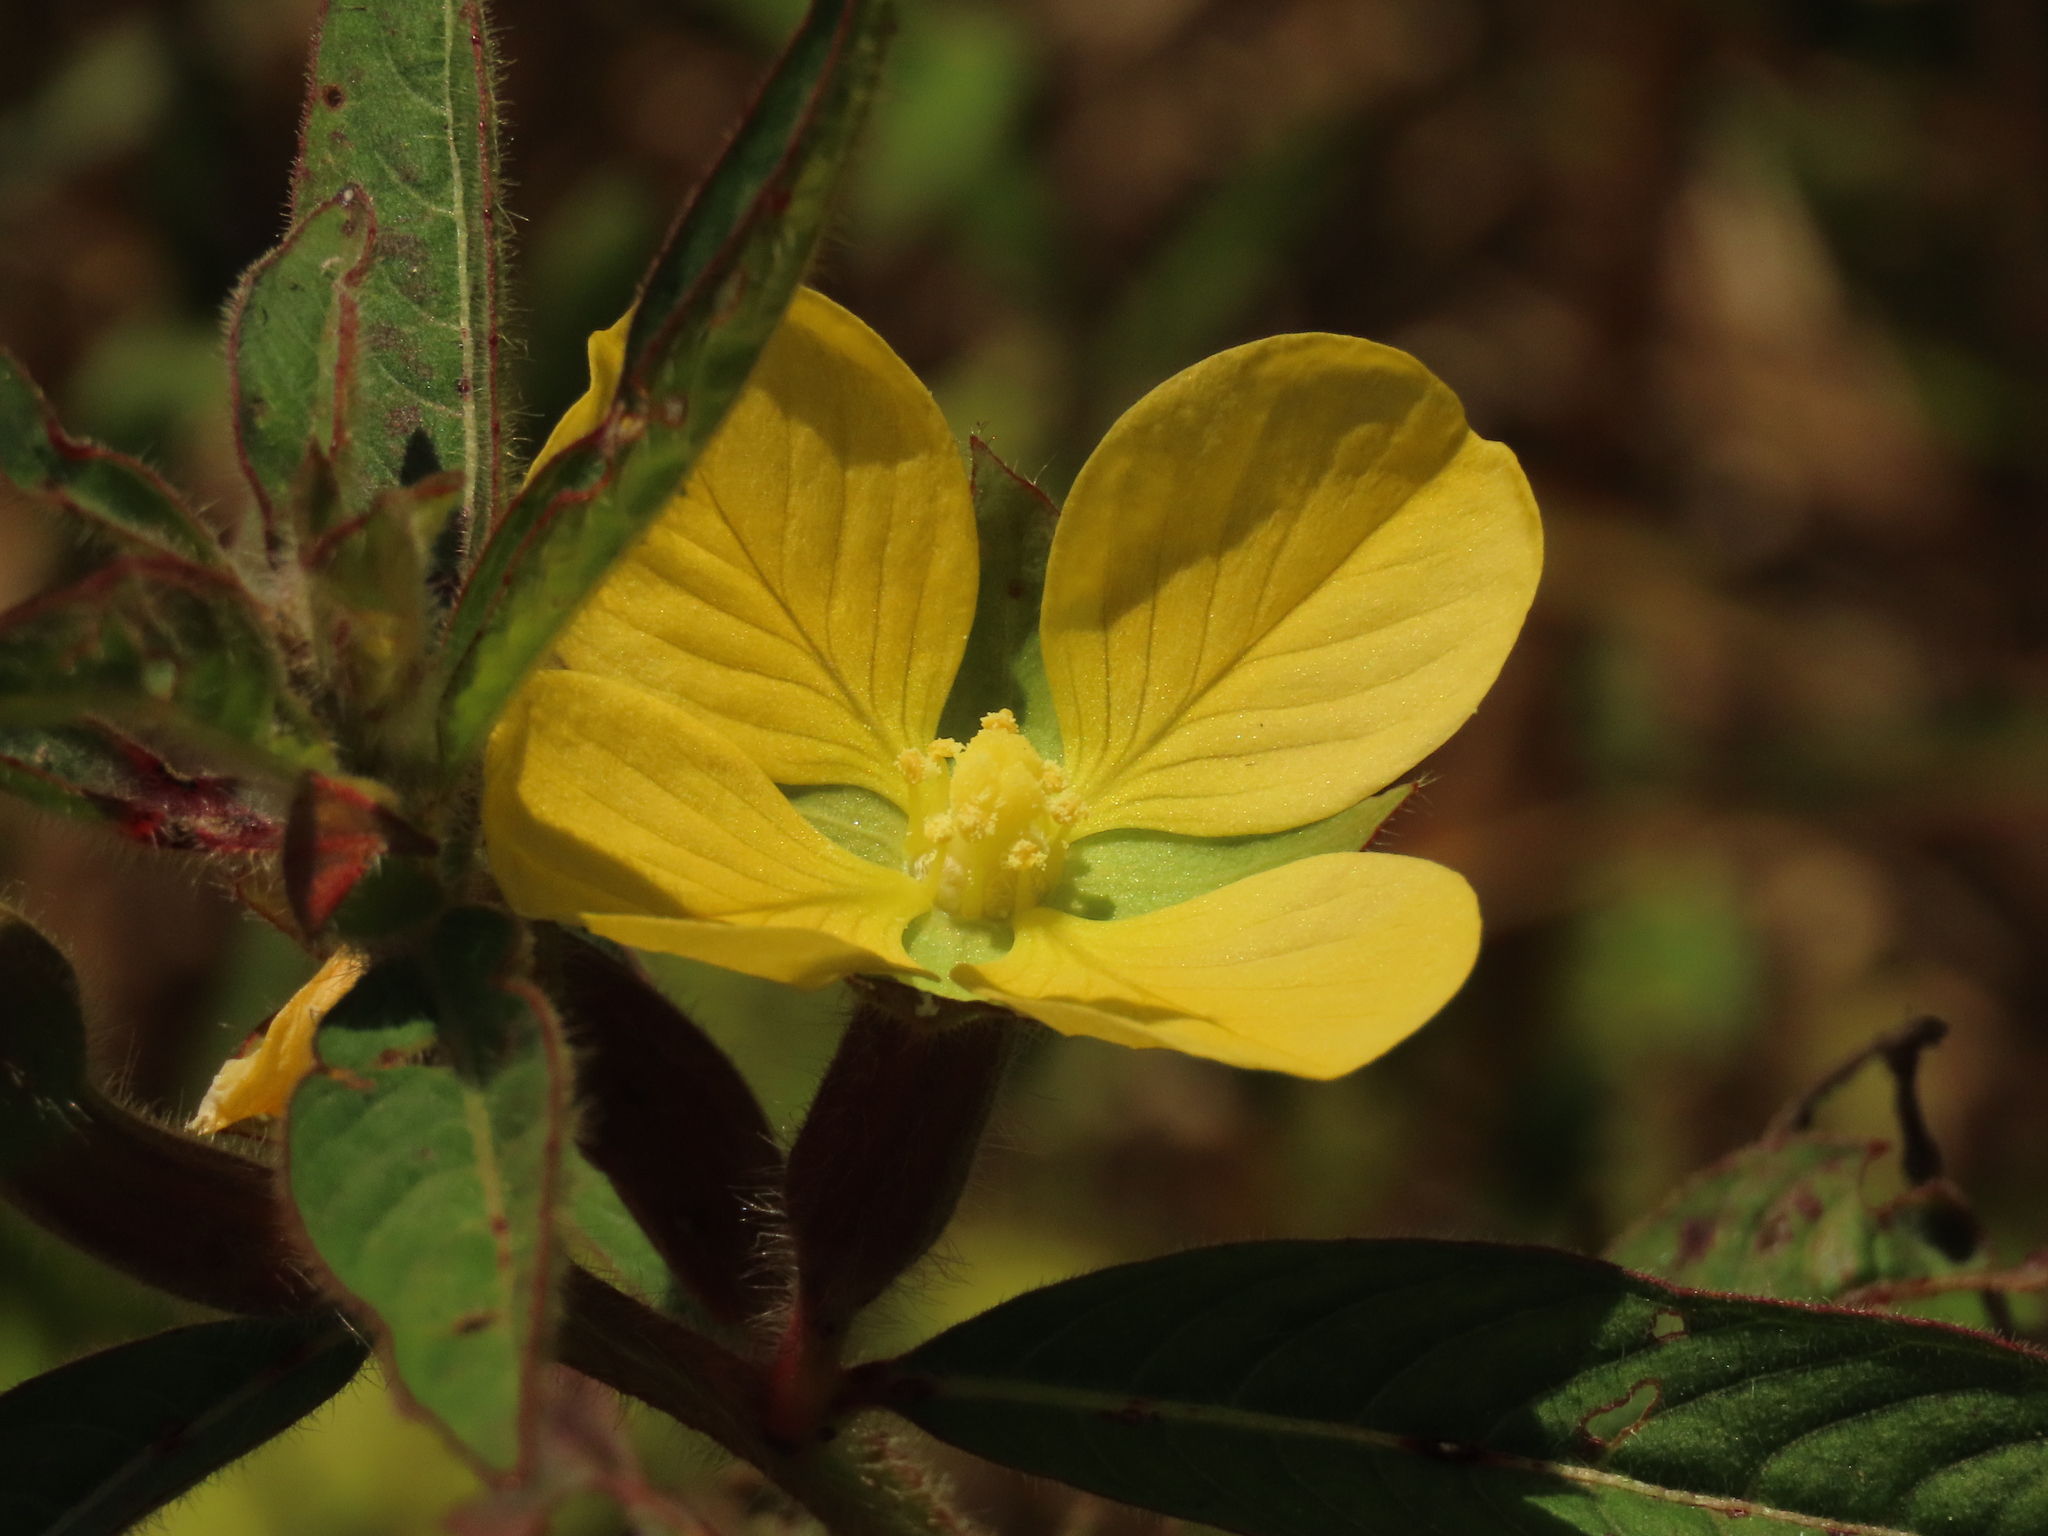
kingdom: Plantae
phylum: Tracheophyta
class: Magnoliopsida
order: Myrtales
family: Onagraceae
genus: Ludwigia
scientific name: Ludwigia octovalvis
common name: Water-primrose
